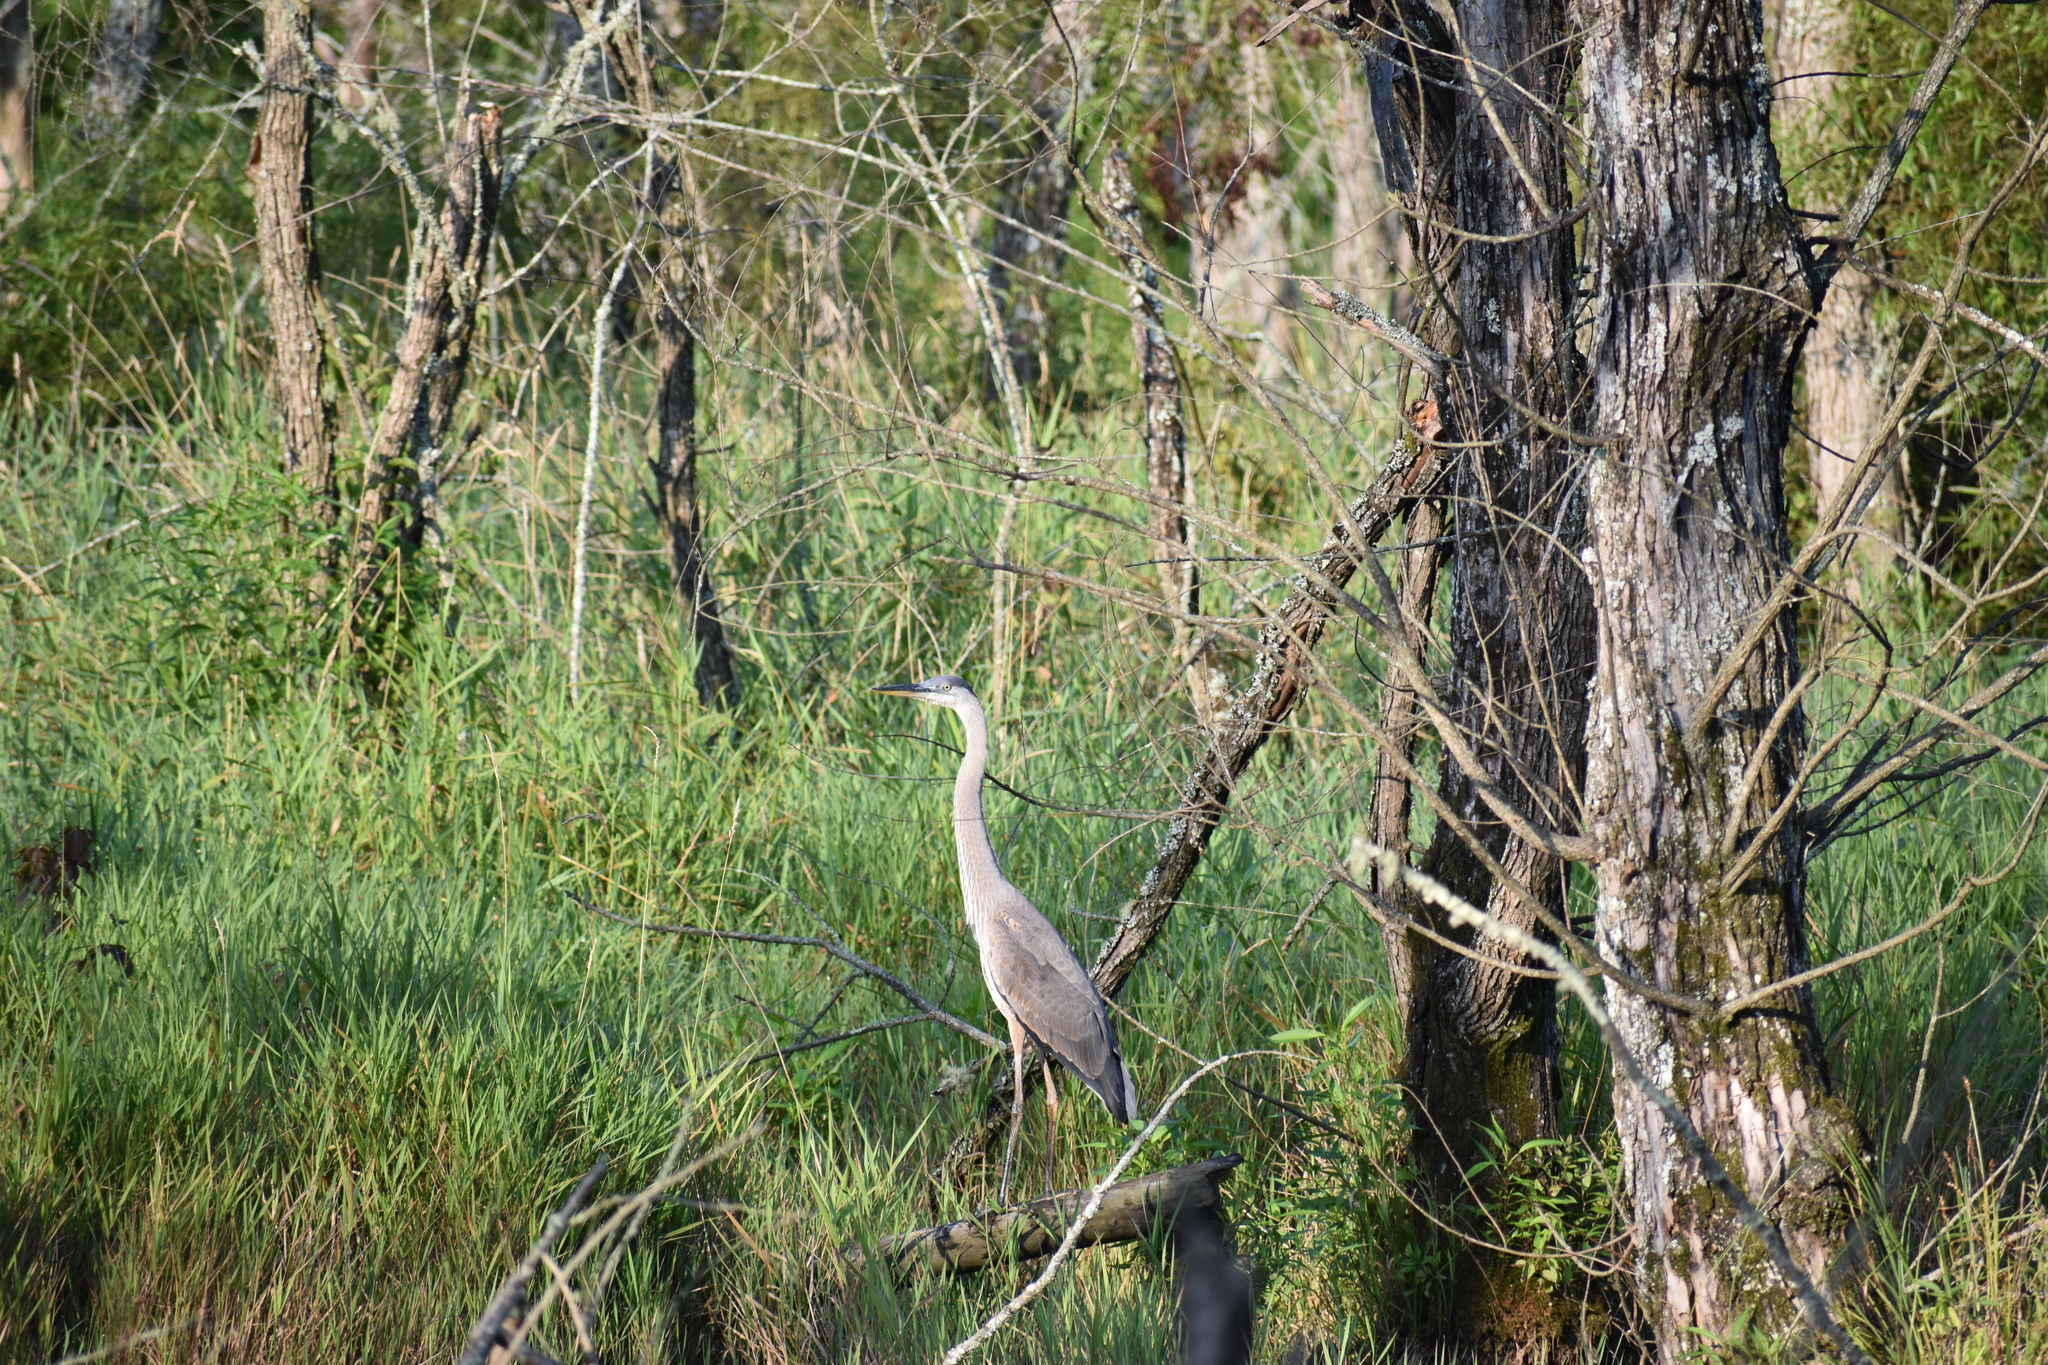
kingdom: Animalia
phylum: Chordata
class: Aves
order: Pelecaniformes
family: Ardeidae
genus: Ardea
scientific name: Ardea herodias
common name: Great blue heron
